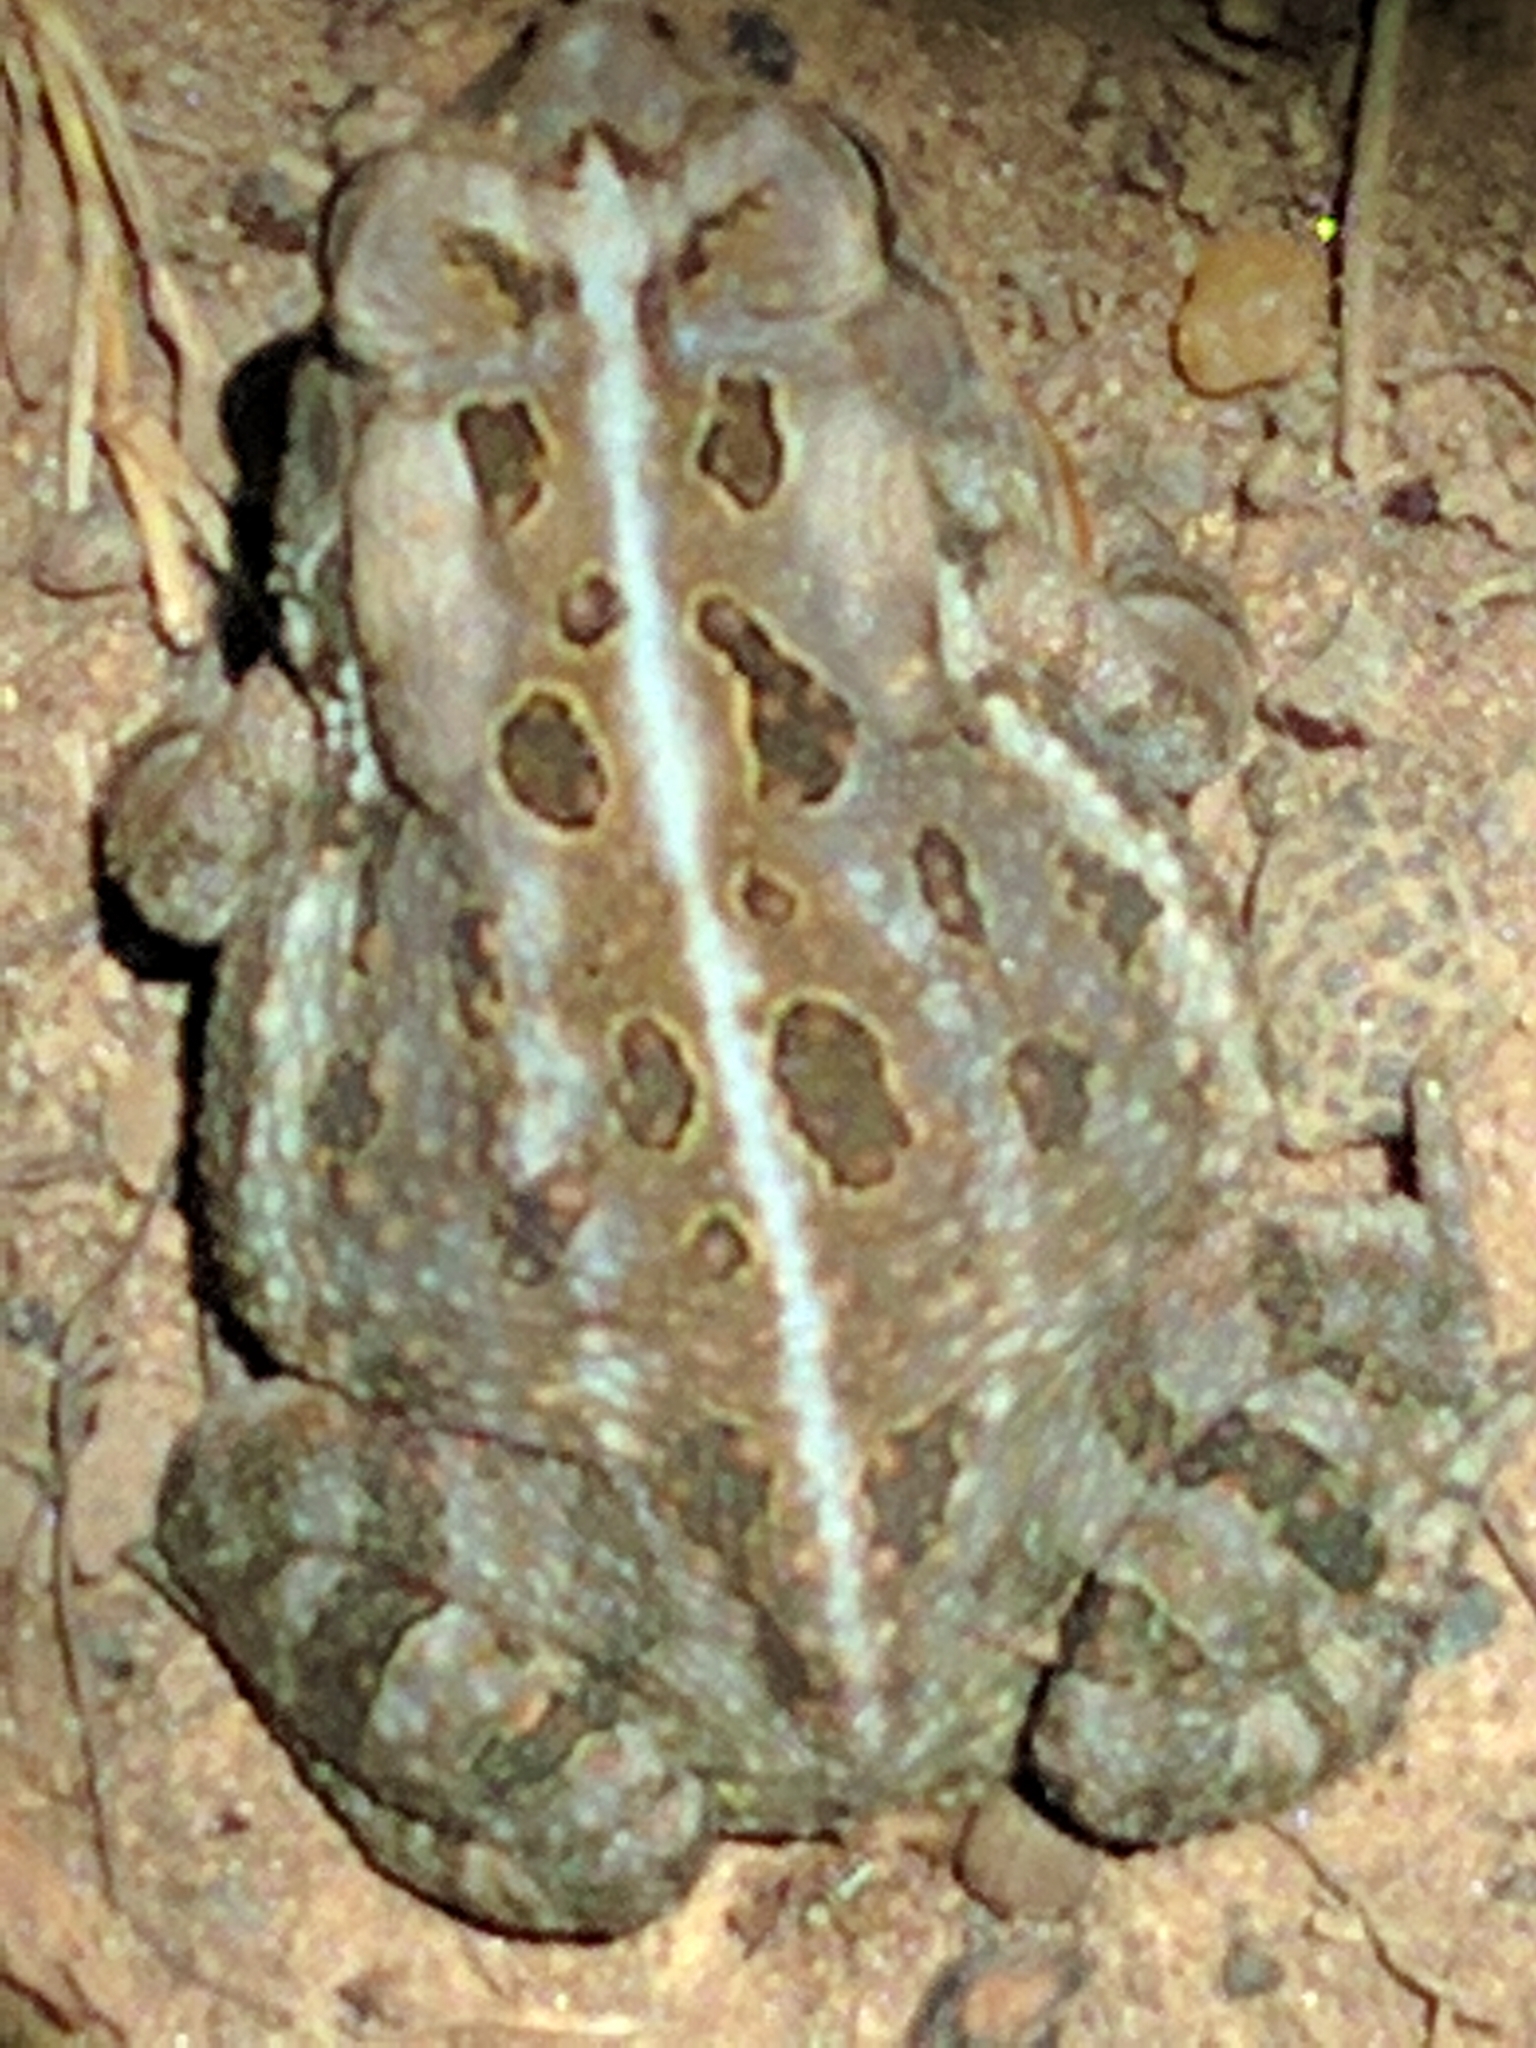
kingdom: Animalia
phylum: Chordata
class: Amphibia
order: Anura
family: Bufonidae
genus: Anaxyrus
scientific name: Anaxyrus fowleri
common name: Fowler's toad
